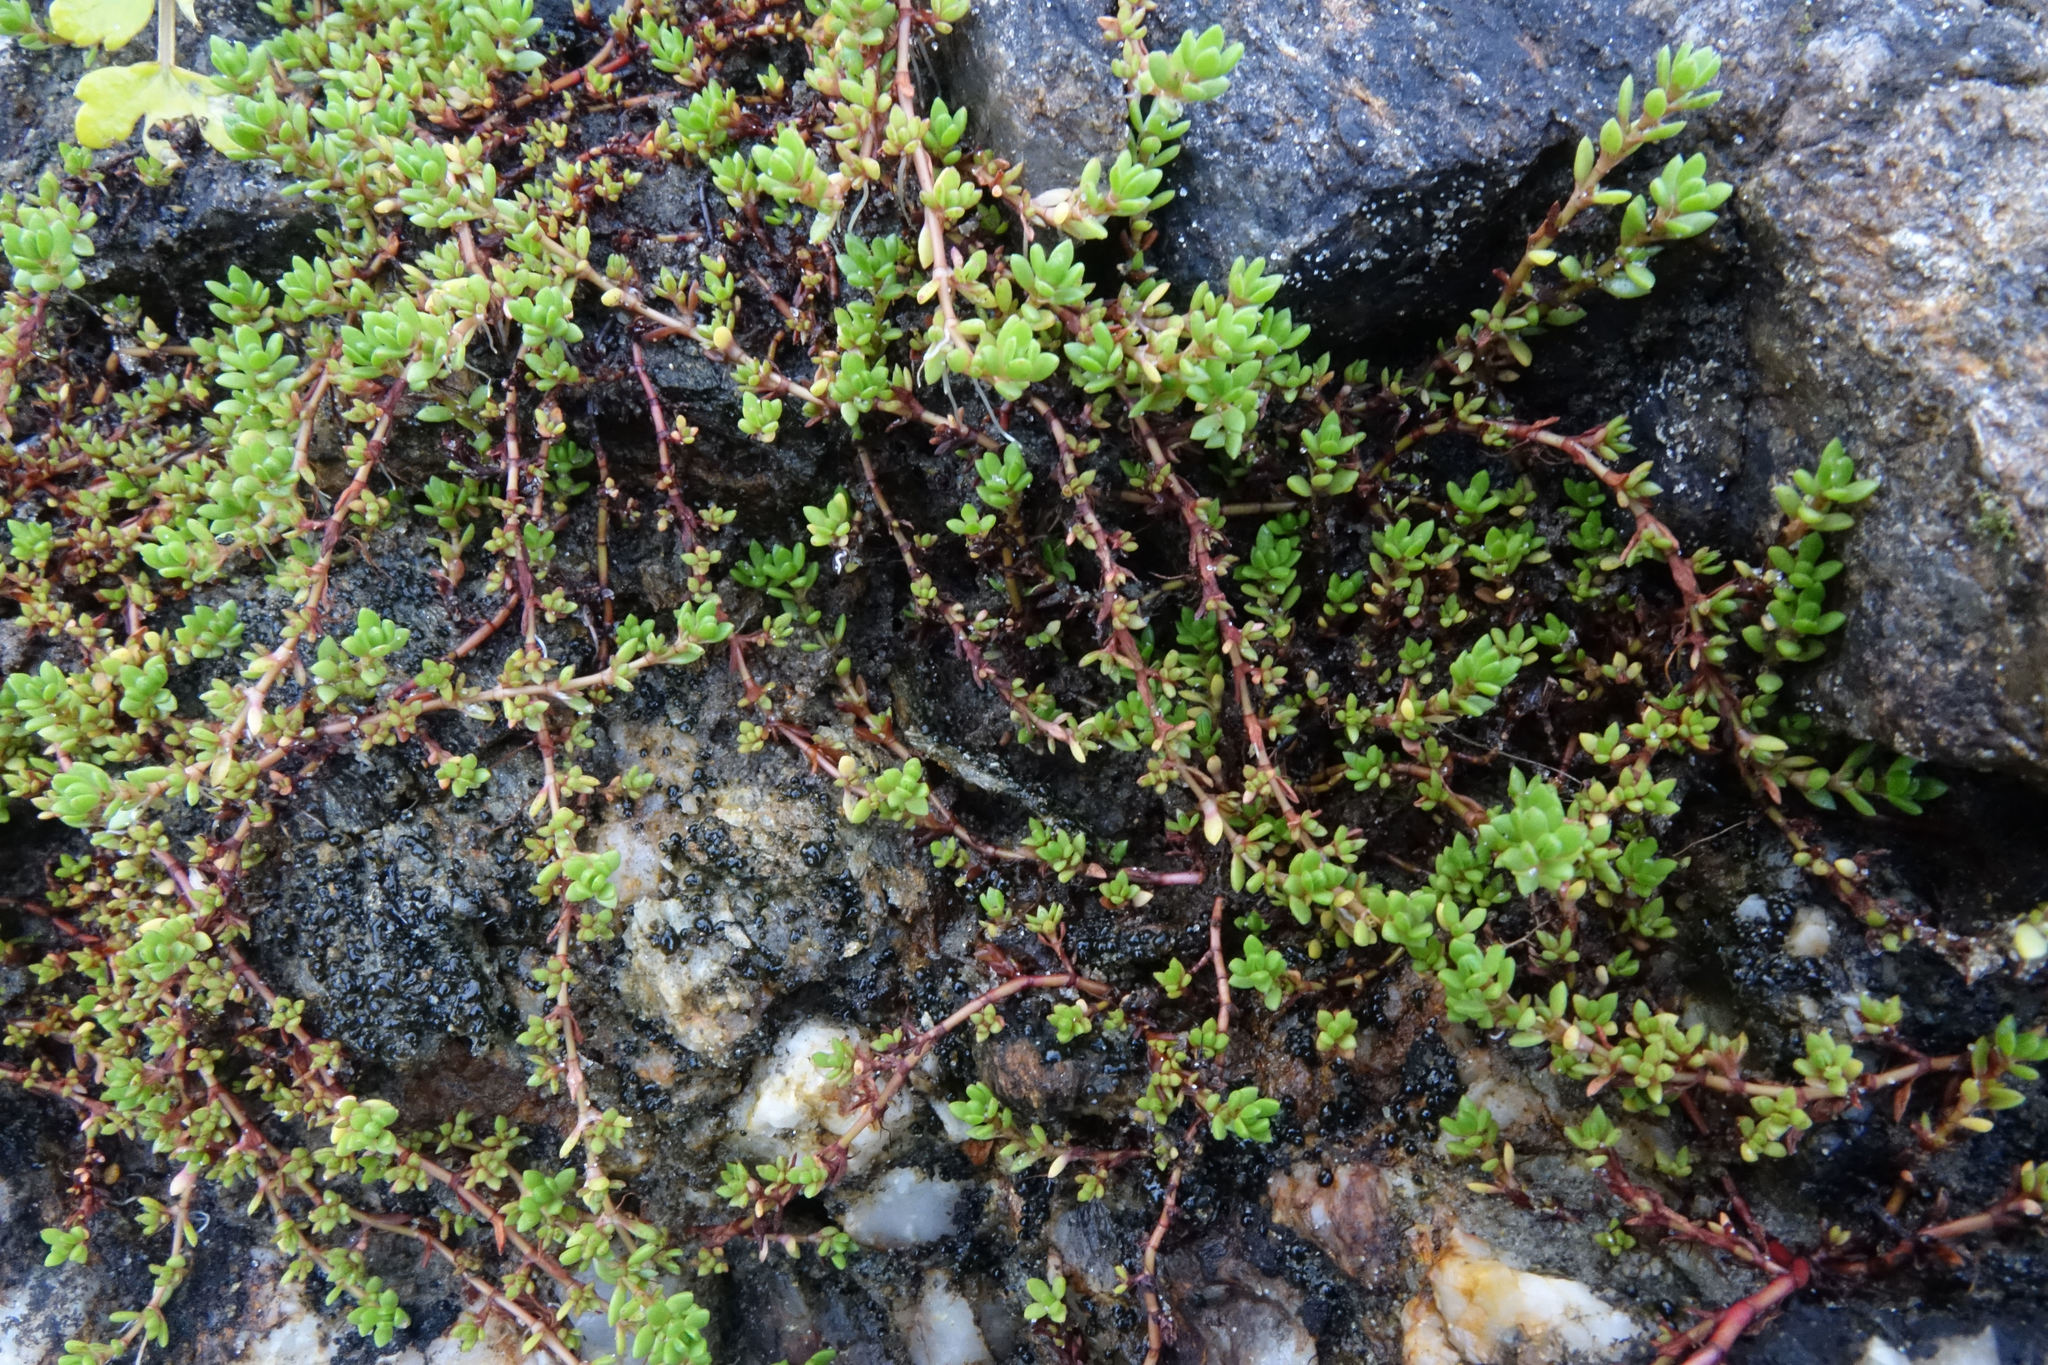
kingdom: Plantae
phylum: Tracheophyta
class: Magnoliopsida
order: Saxifragales
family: Crassulaceae
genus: Crassula
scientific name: Crassula moschata
